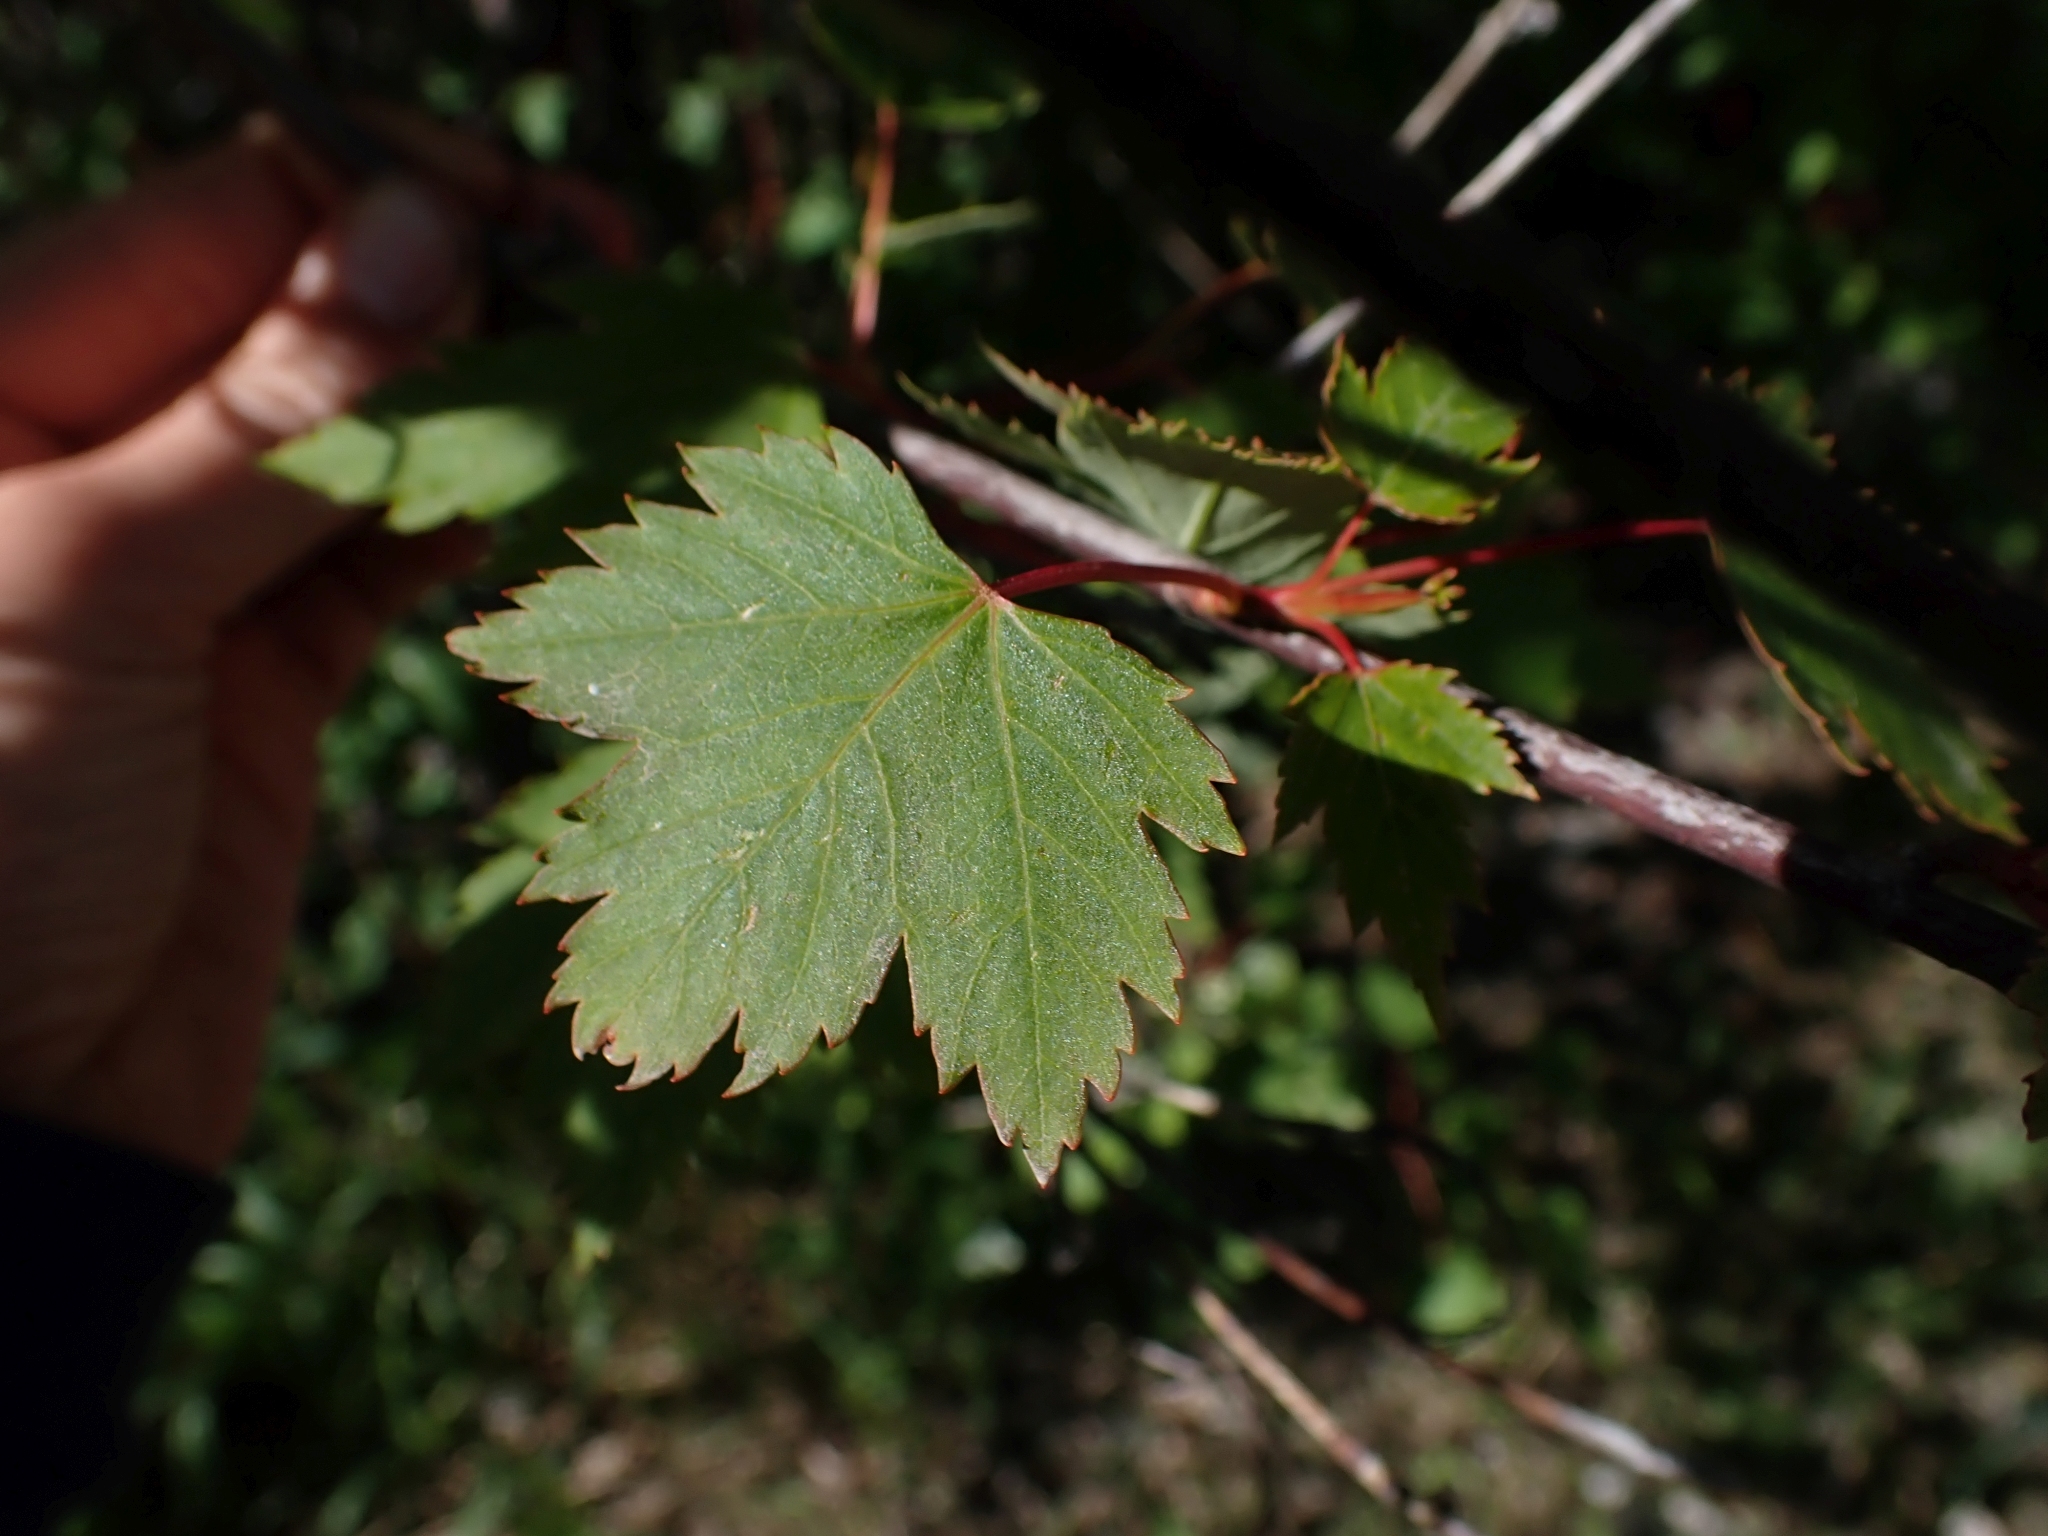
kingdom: Plantae
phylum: Tracheophyta
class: Magnoliopsida
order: Sapindales
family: Sapindaceae
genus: Acer
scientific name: Acer glabrum
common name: Rocky mountain maple
